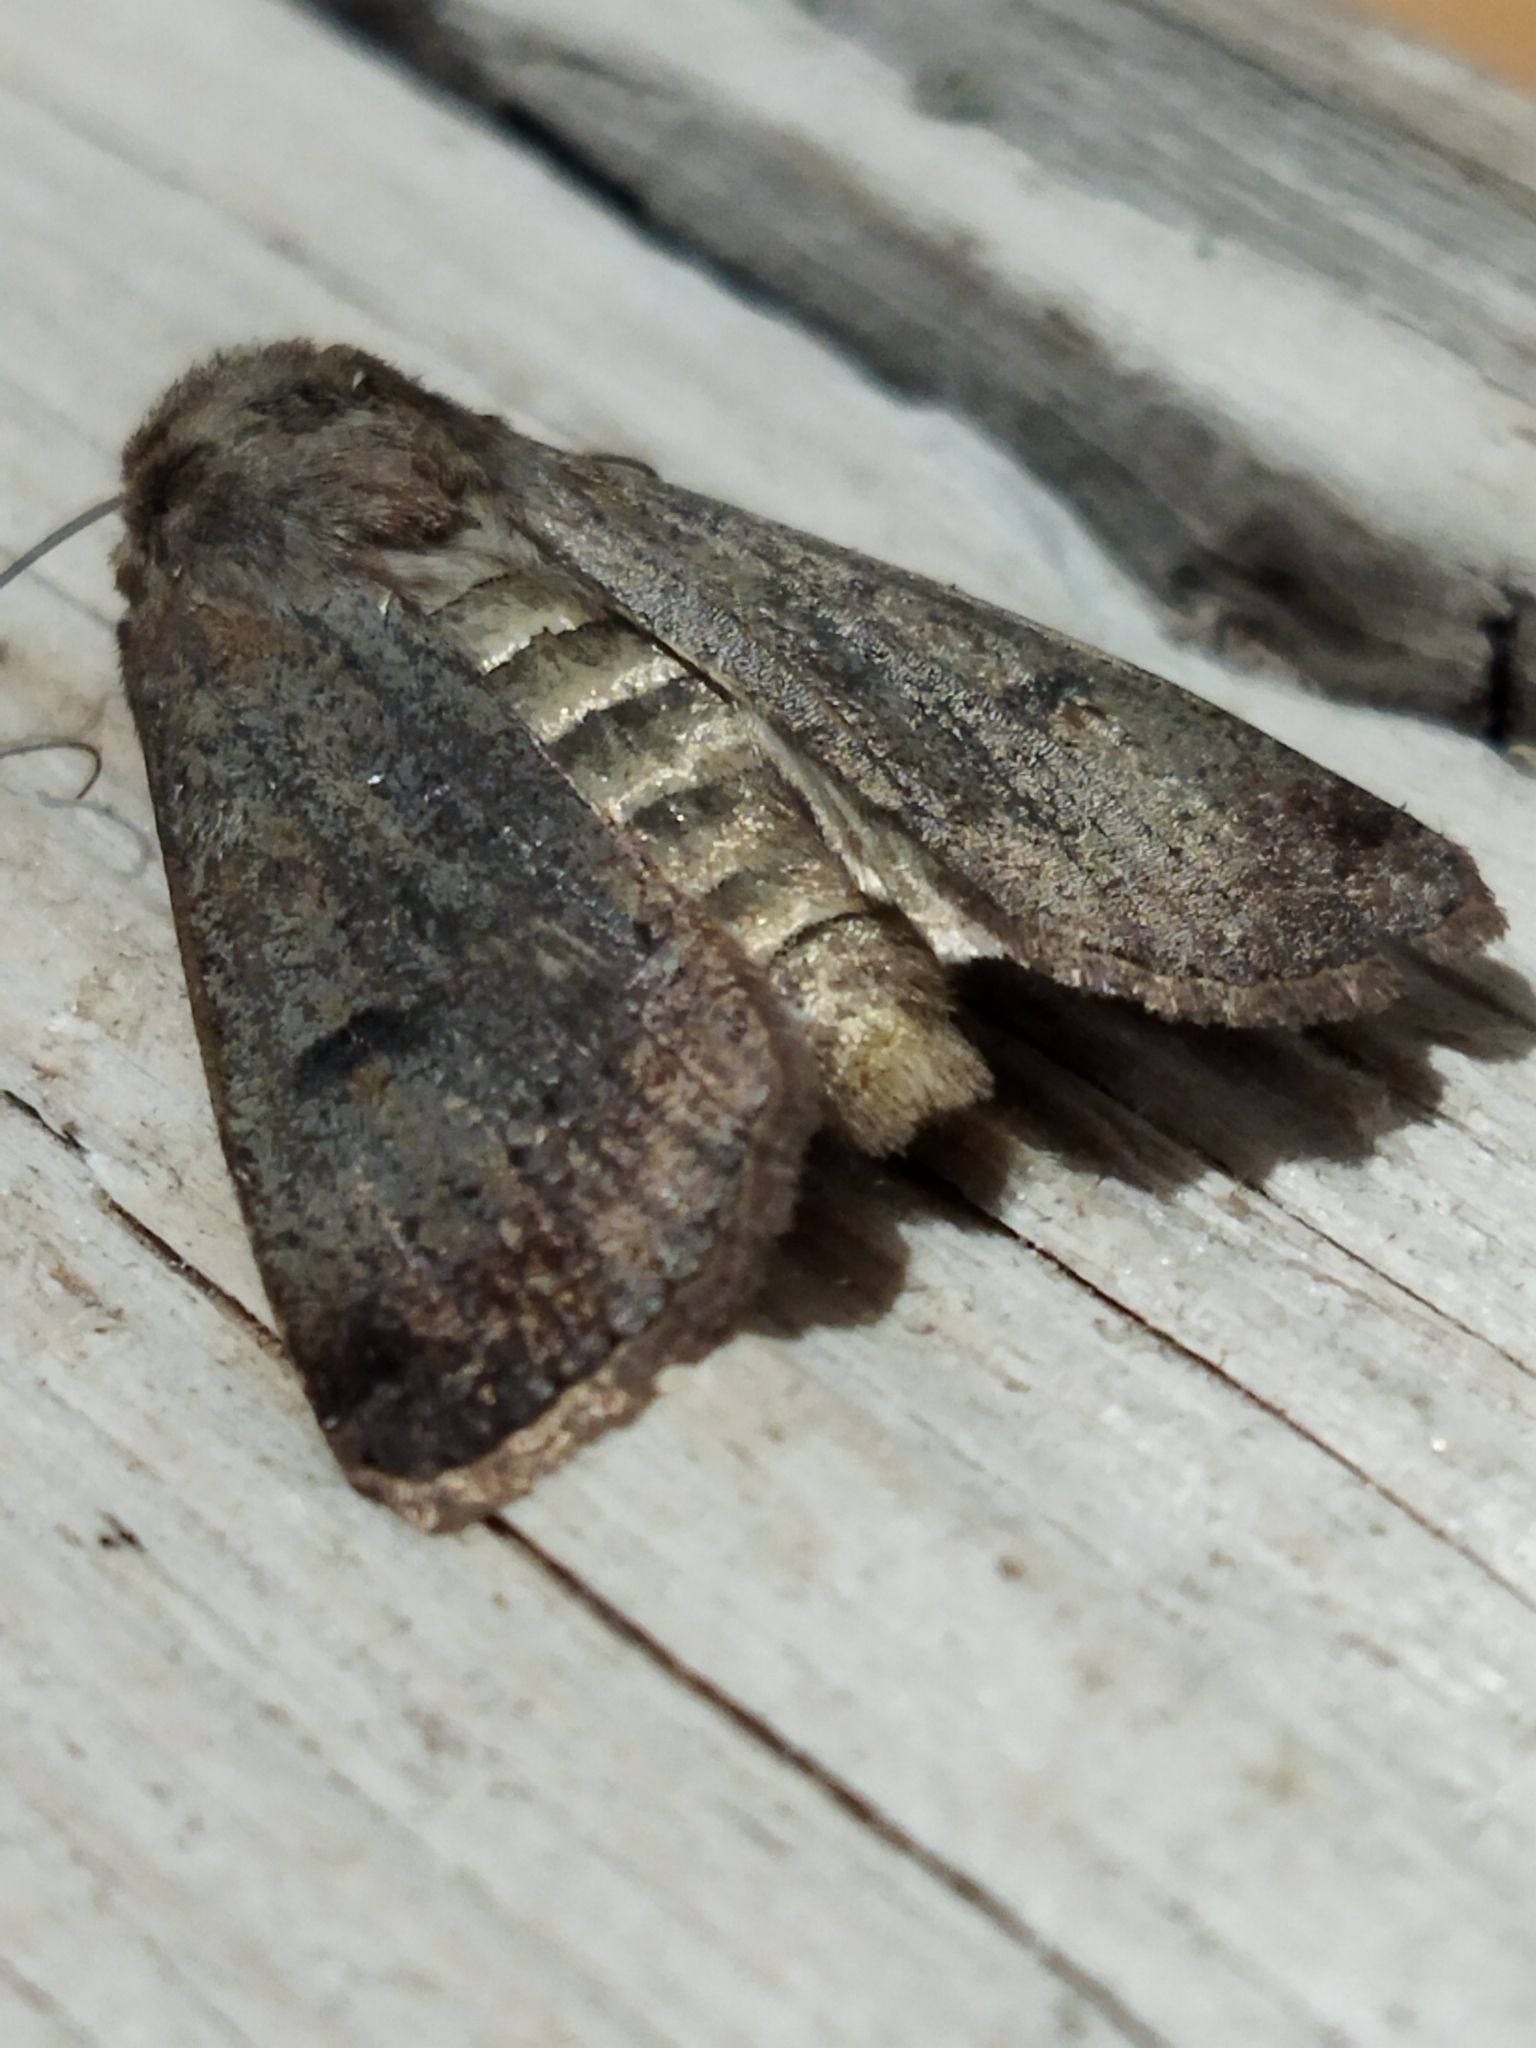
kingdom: Animalia
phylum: Arthropoda
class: Insecta
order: Lepidoptera
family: Noctuidae
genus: Agrotis
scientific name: Agrotis trux
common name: Crescent dart
